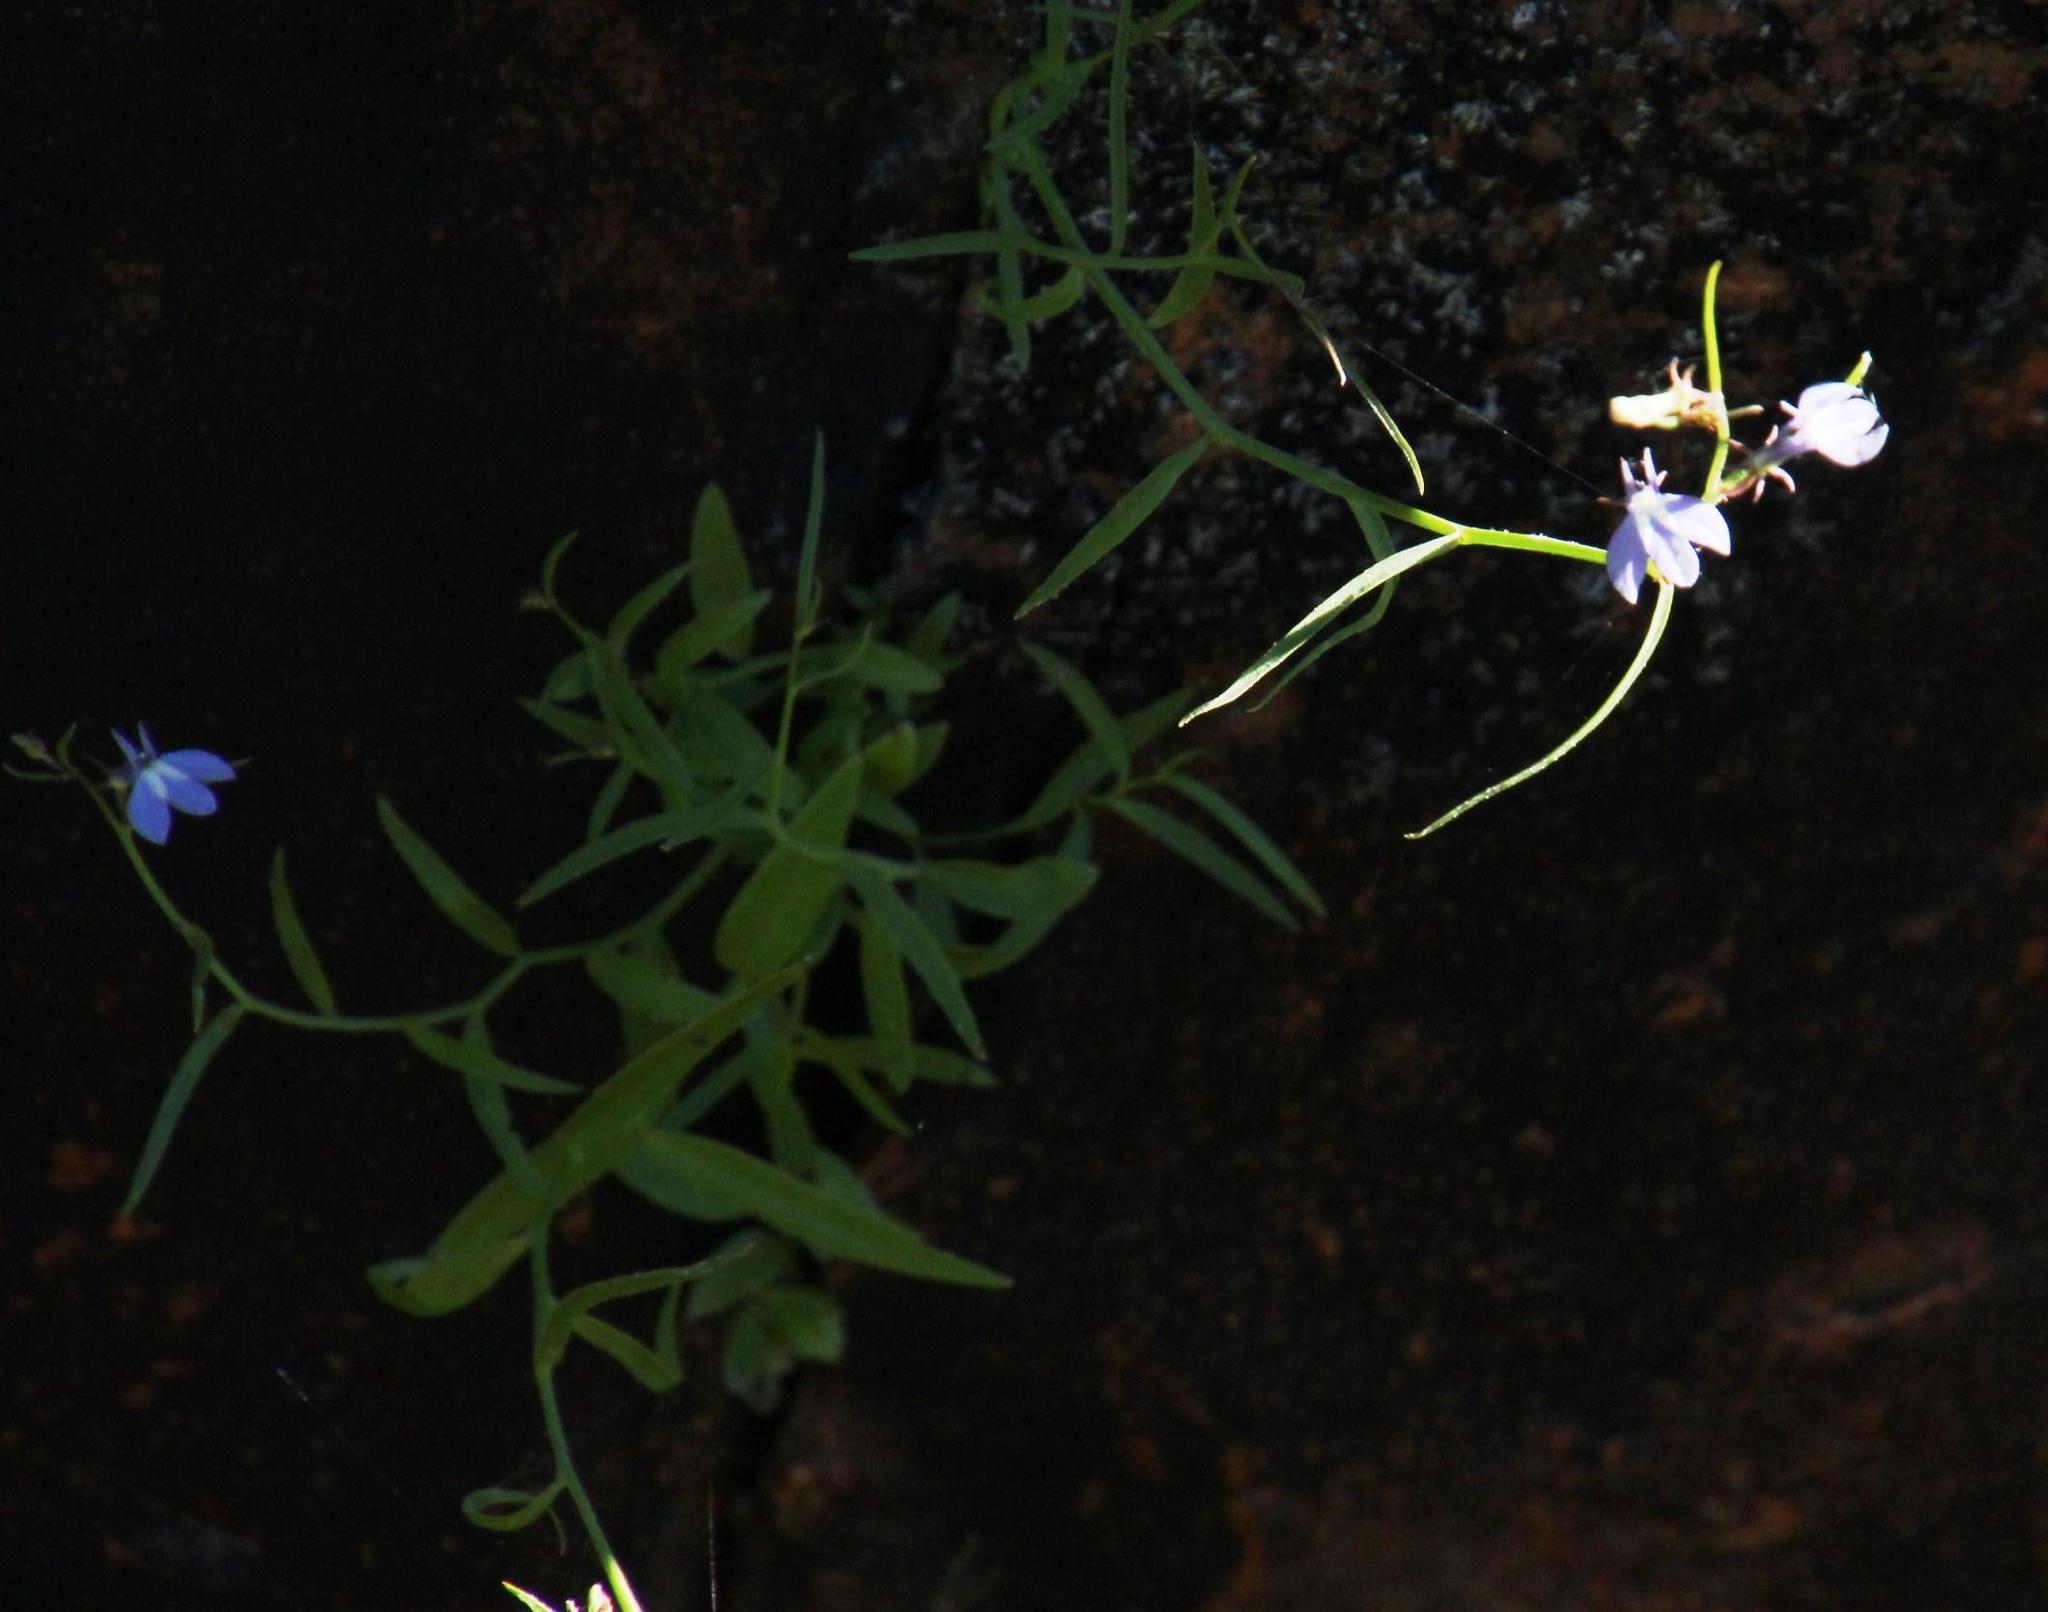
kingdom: Plantae
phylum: Tracheophyta
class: Magnoliopsida
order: Asterales
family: Campanulaceae
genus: Grammatotheca
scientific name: Grammatotheca bergiana
